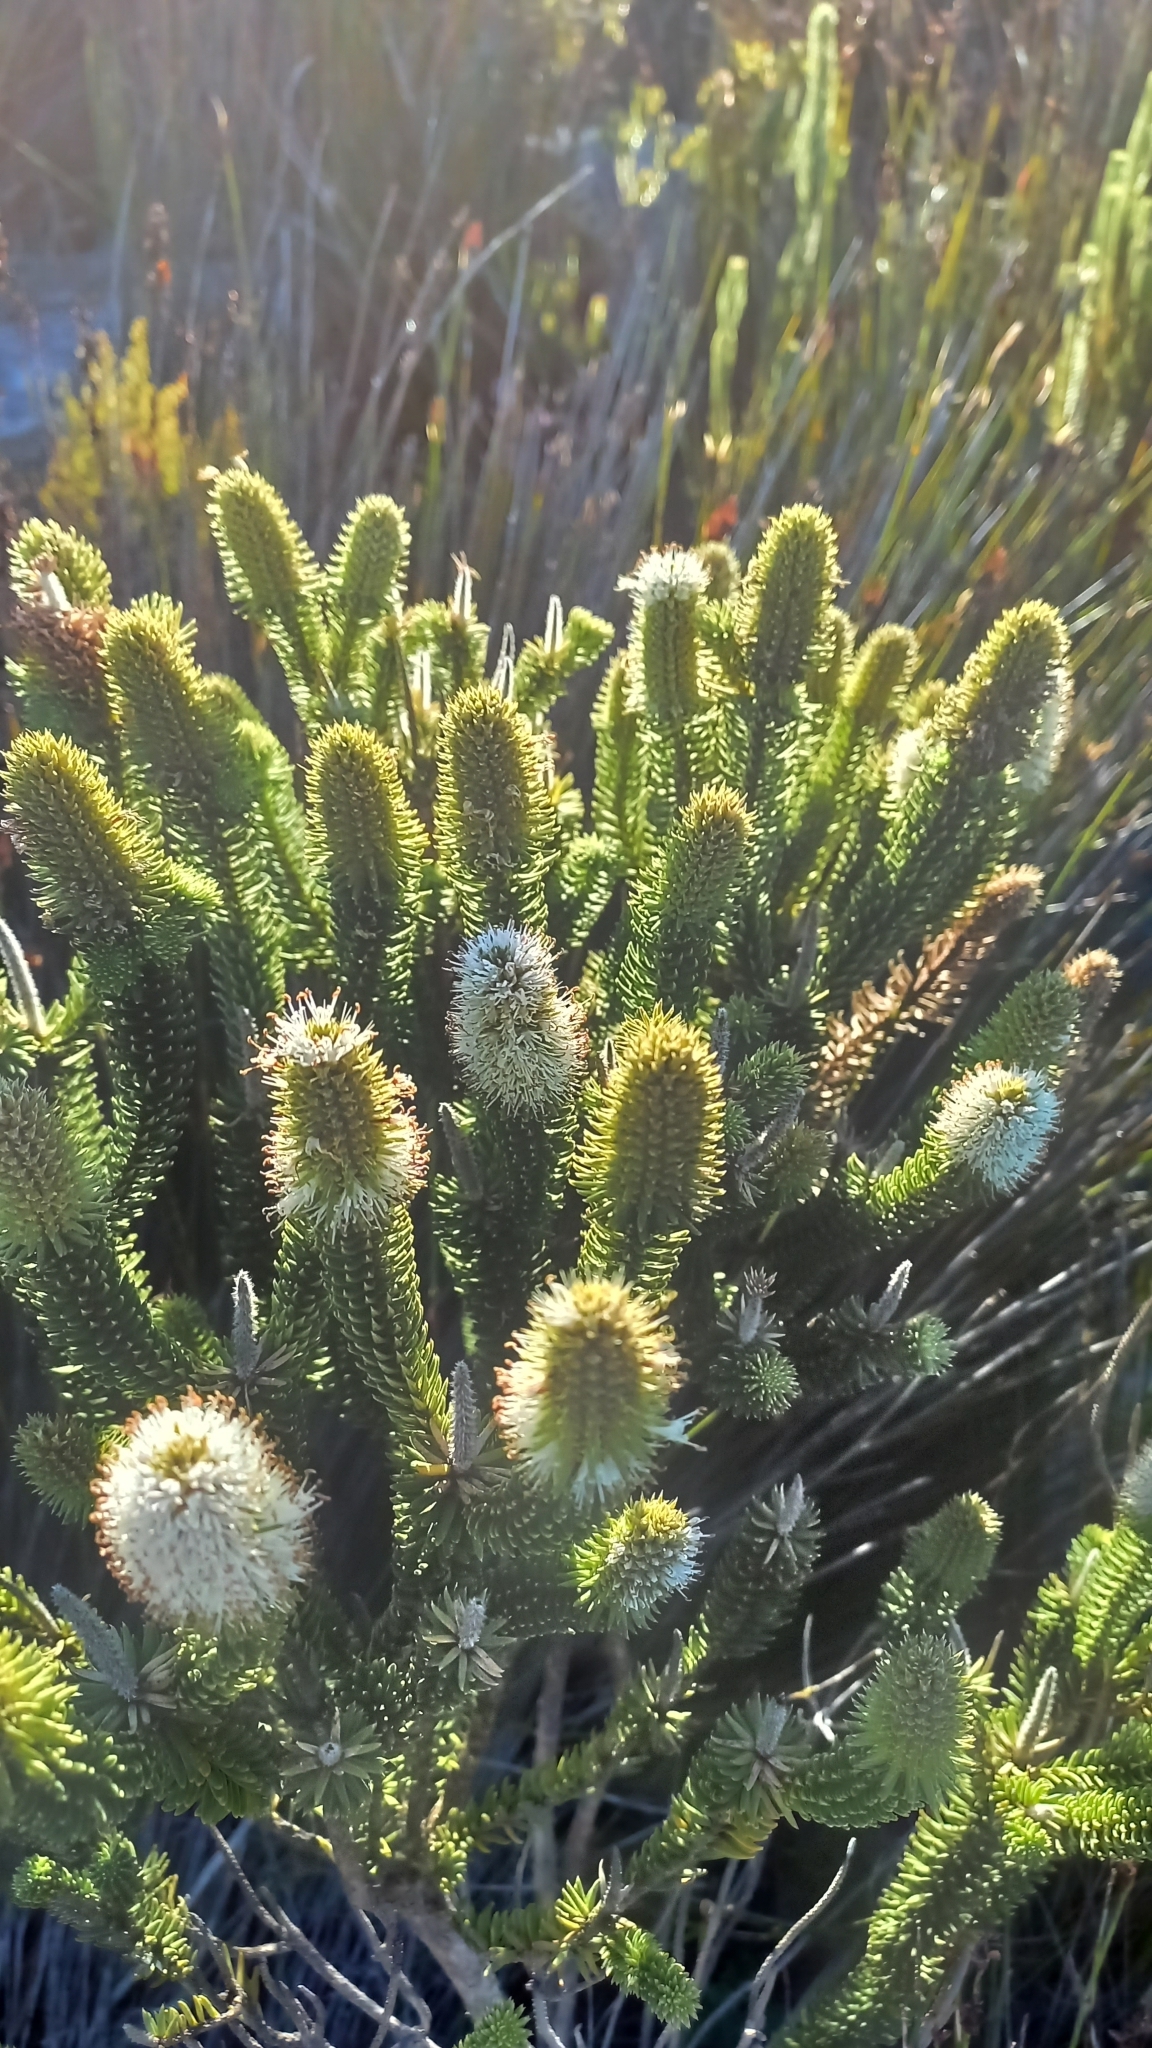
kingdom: Plantae
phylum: Tracheophyta
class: Magnoliopsida
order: Lamiales
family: Stilbaceae
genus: Stilbe
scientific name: Stilbe vestita
